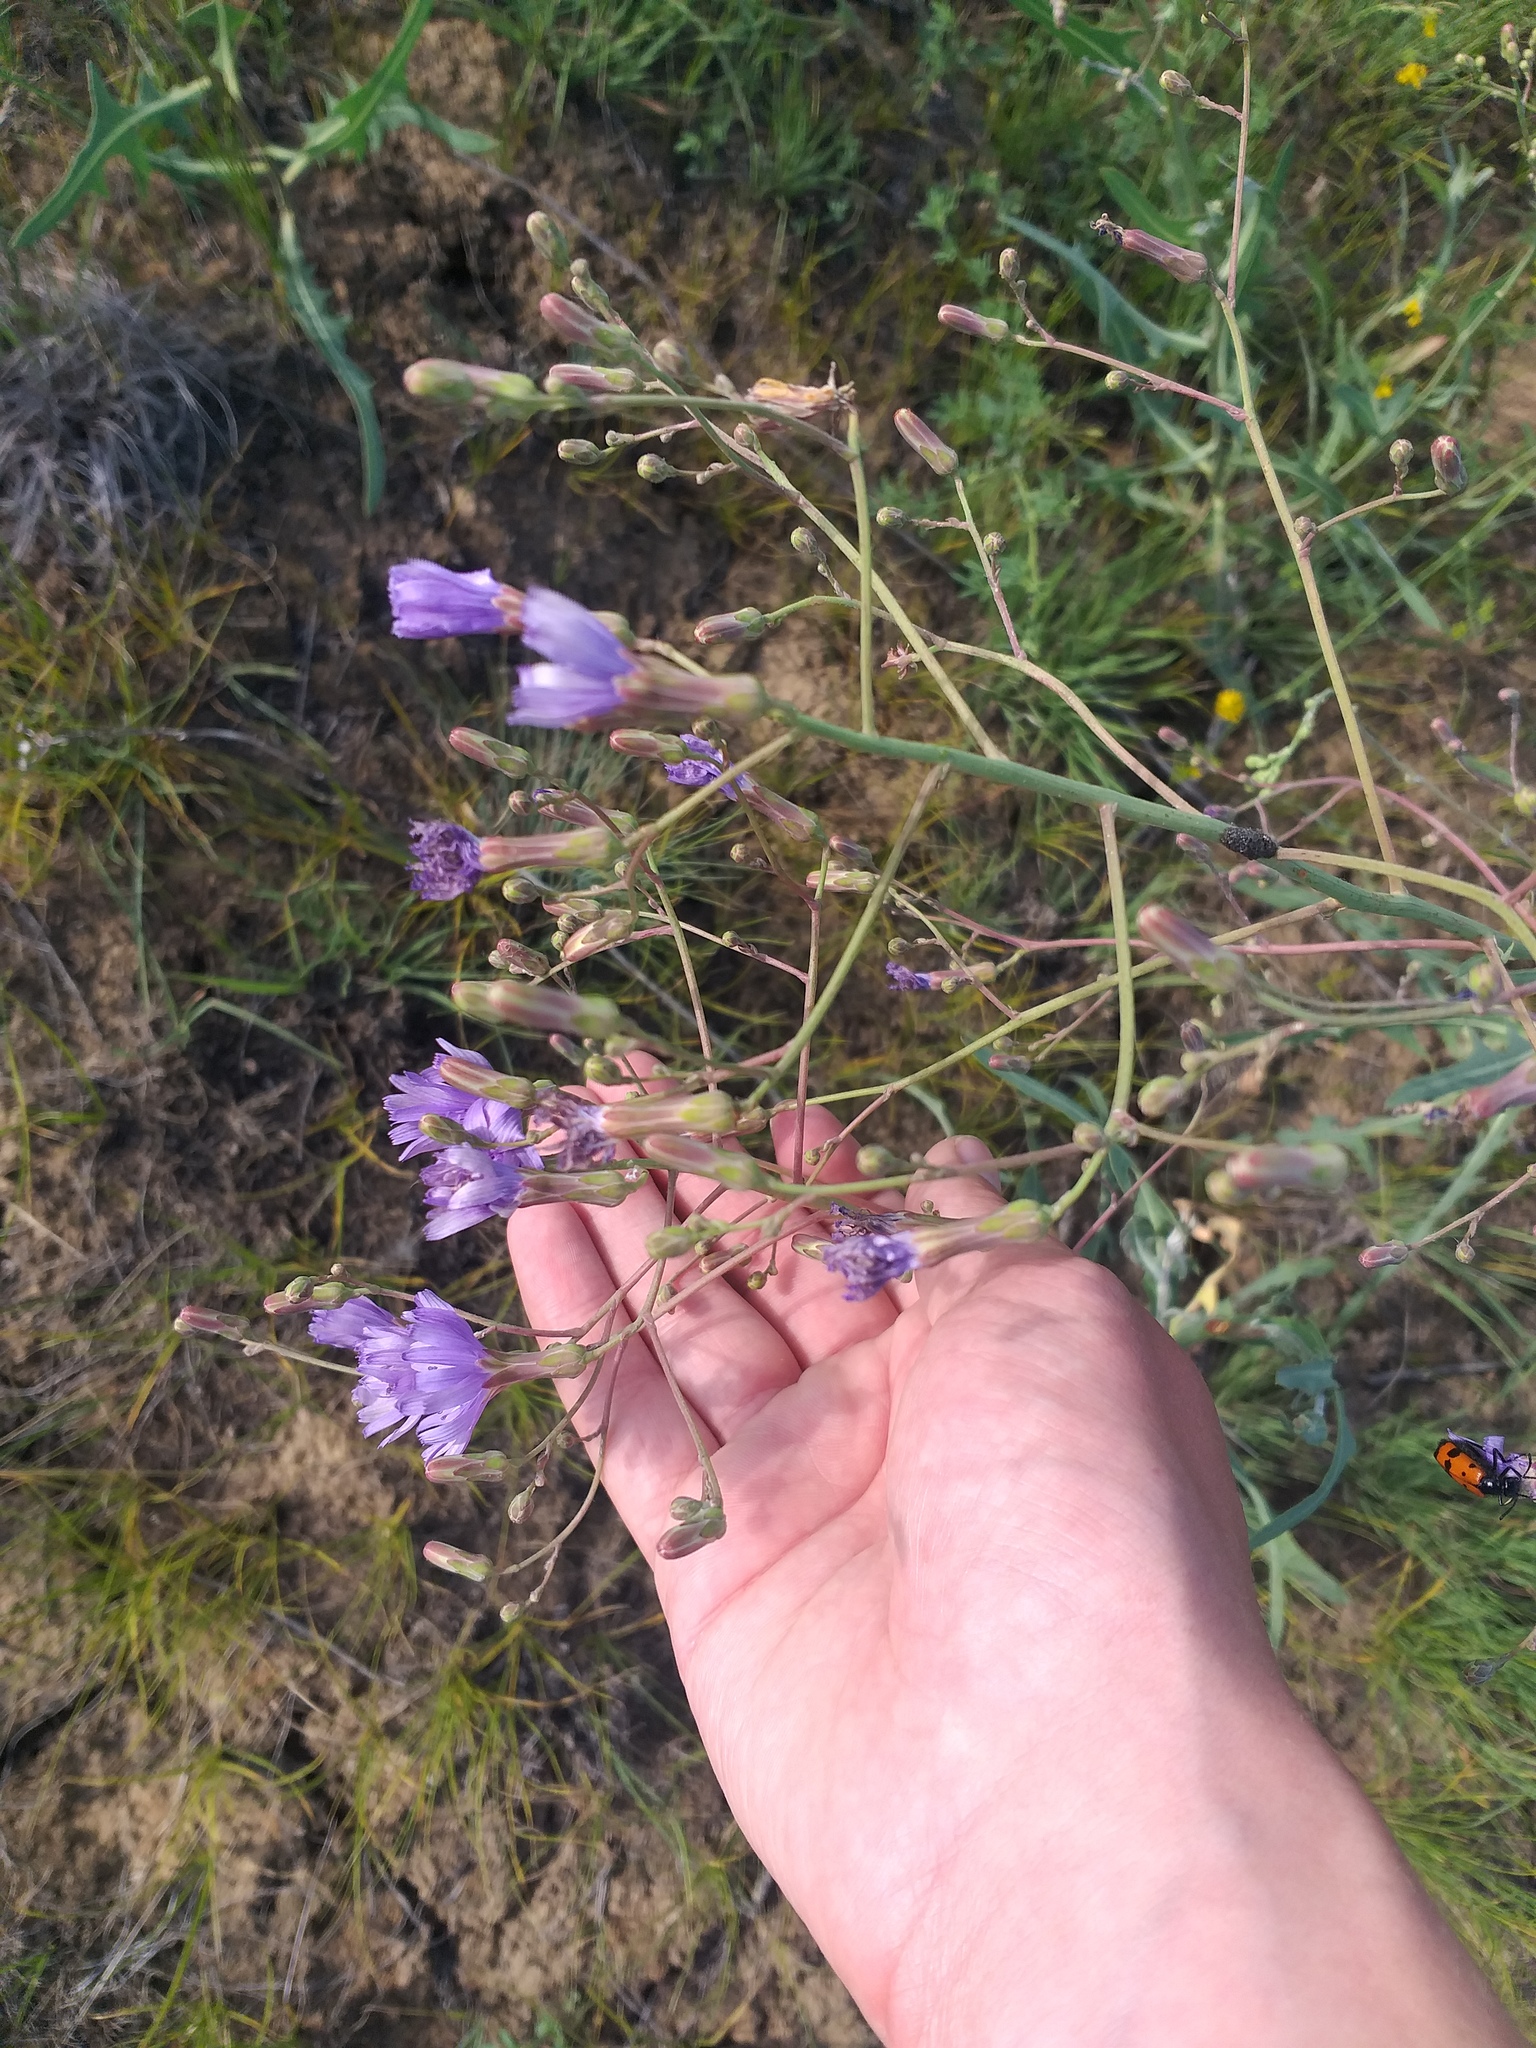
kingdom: Plantae
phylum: Tracheophyta
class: Magnoliopsida
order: Asterales
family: Asteraceae
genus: Lactuca
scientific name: Lactuca tatarica
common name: Blue lettuce
